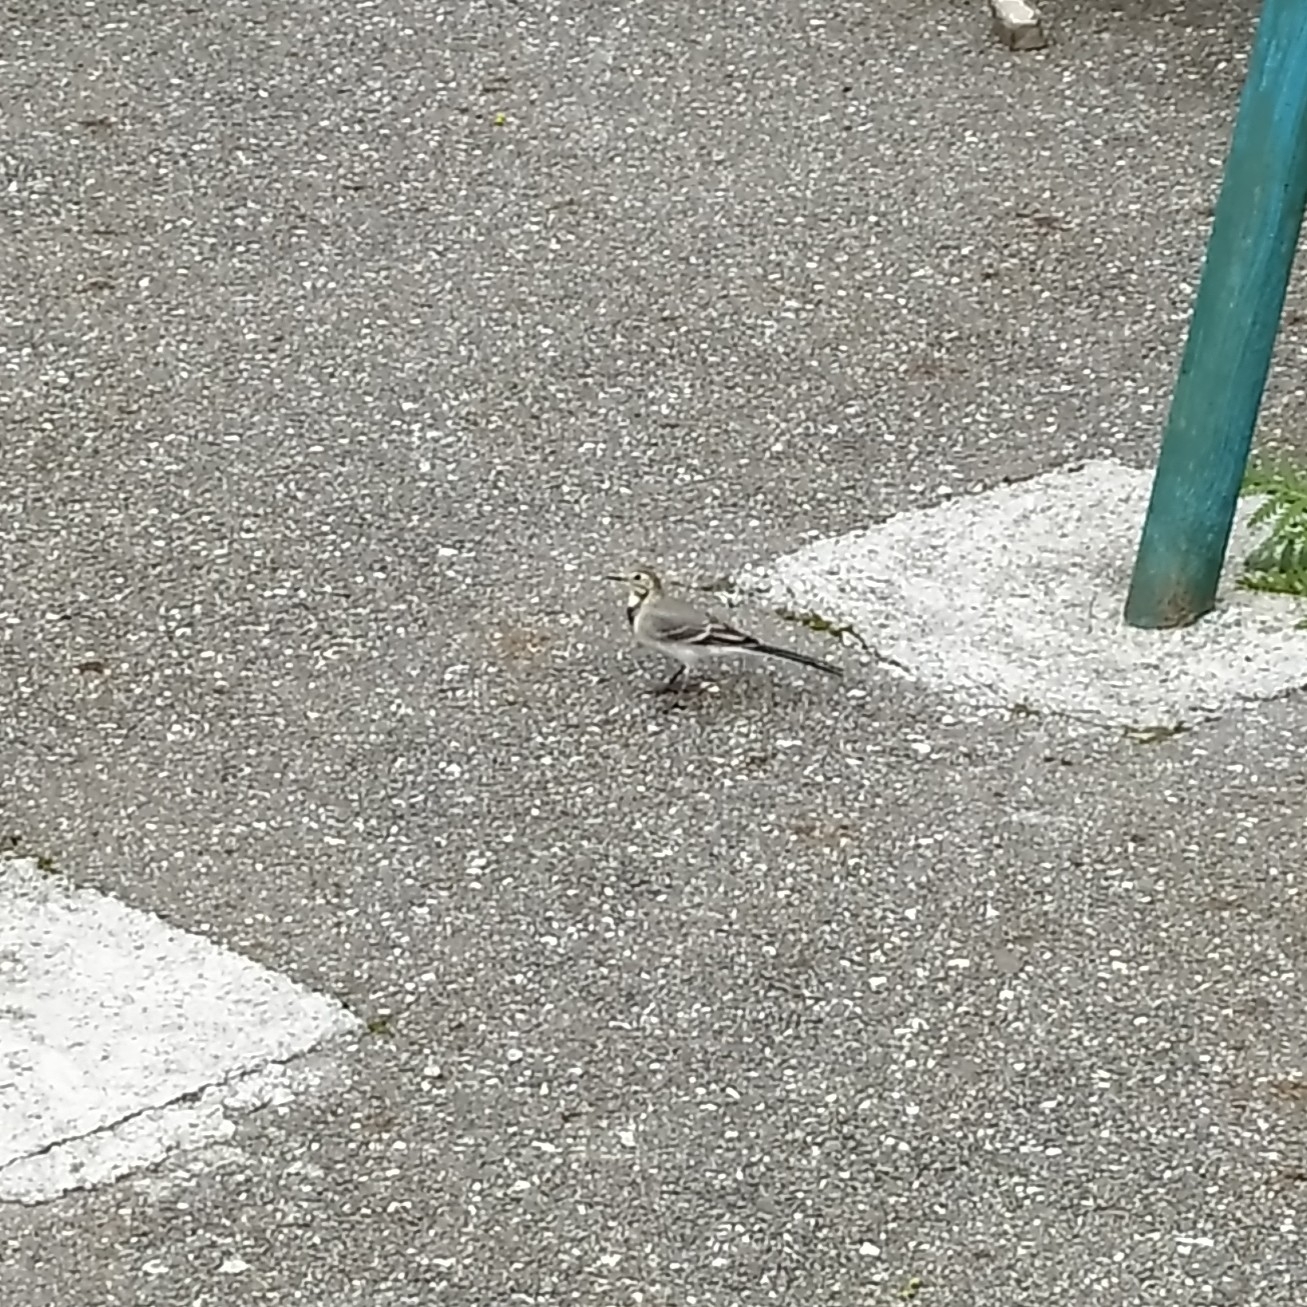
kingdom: Animalia
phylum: Chordata
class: Aves
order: Passeriformes
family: Motacillidae
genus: Motacilla
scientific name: Motacilla alba
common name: White wagtail
